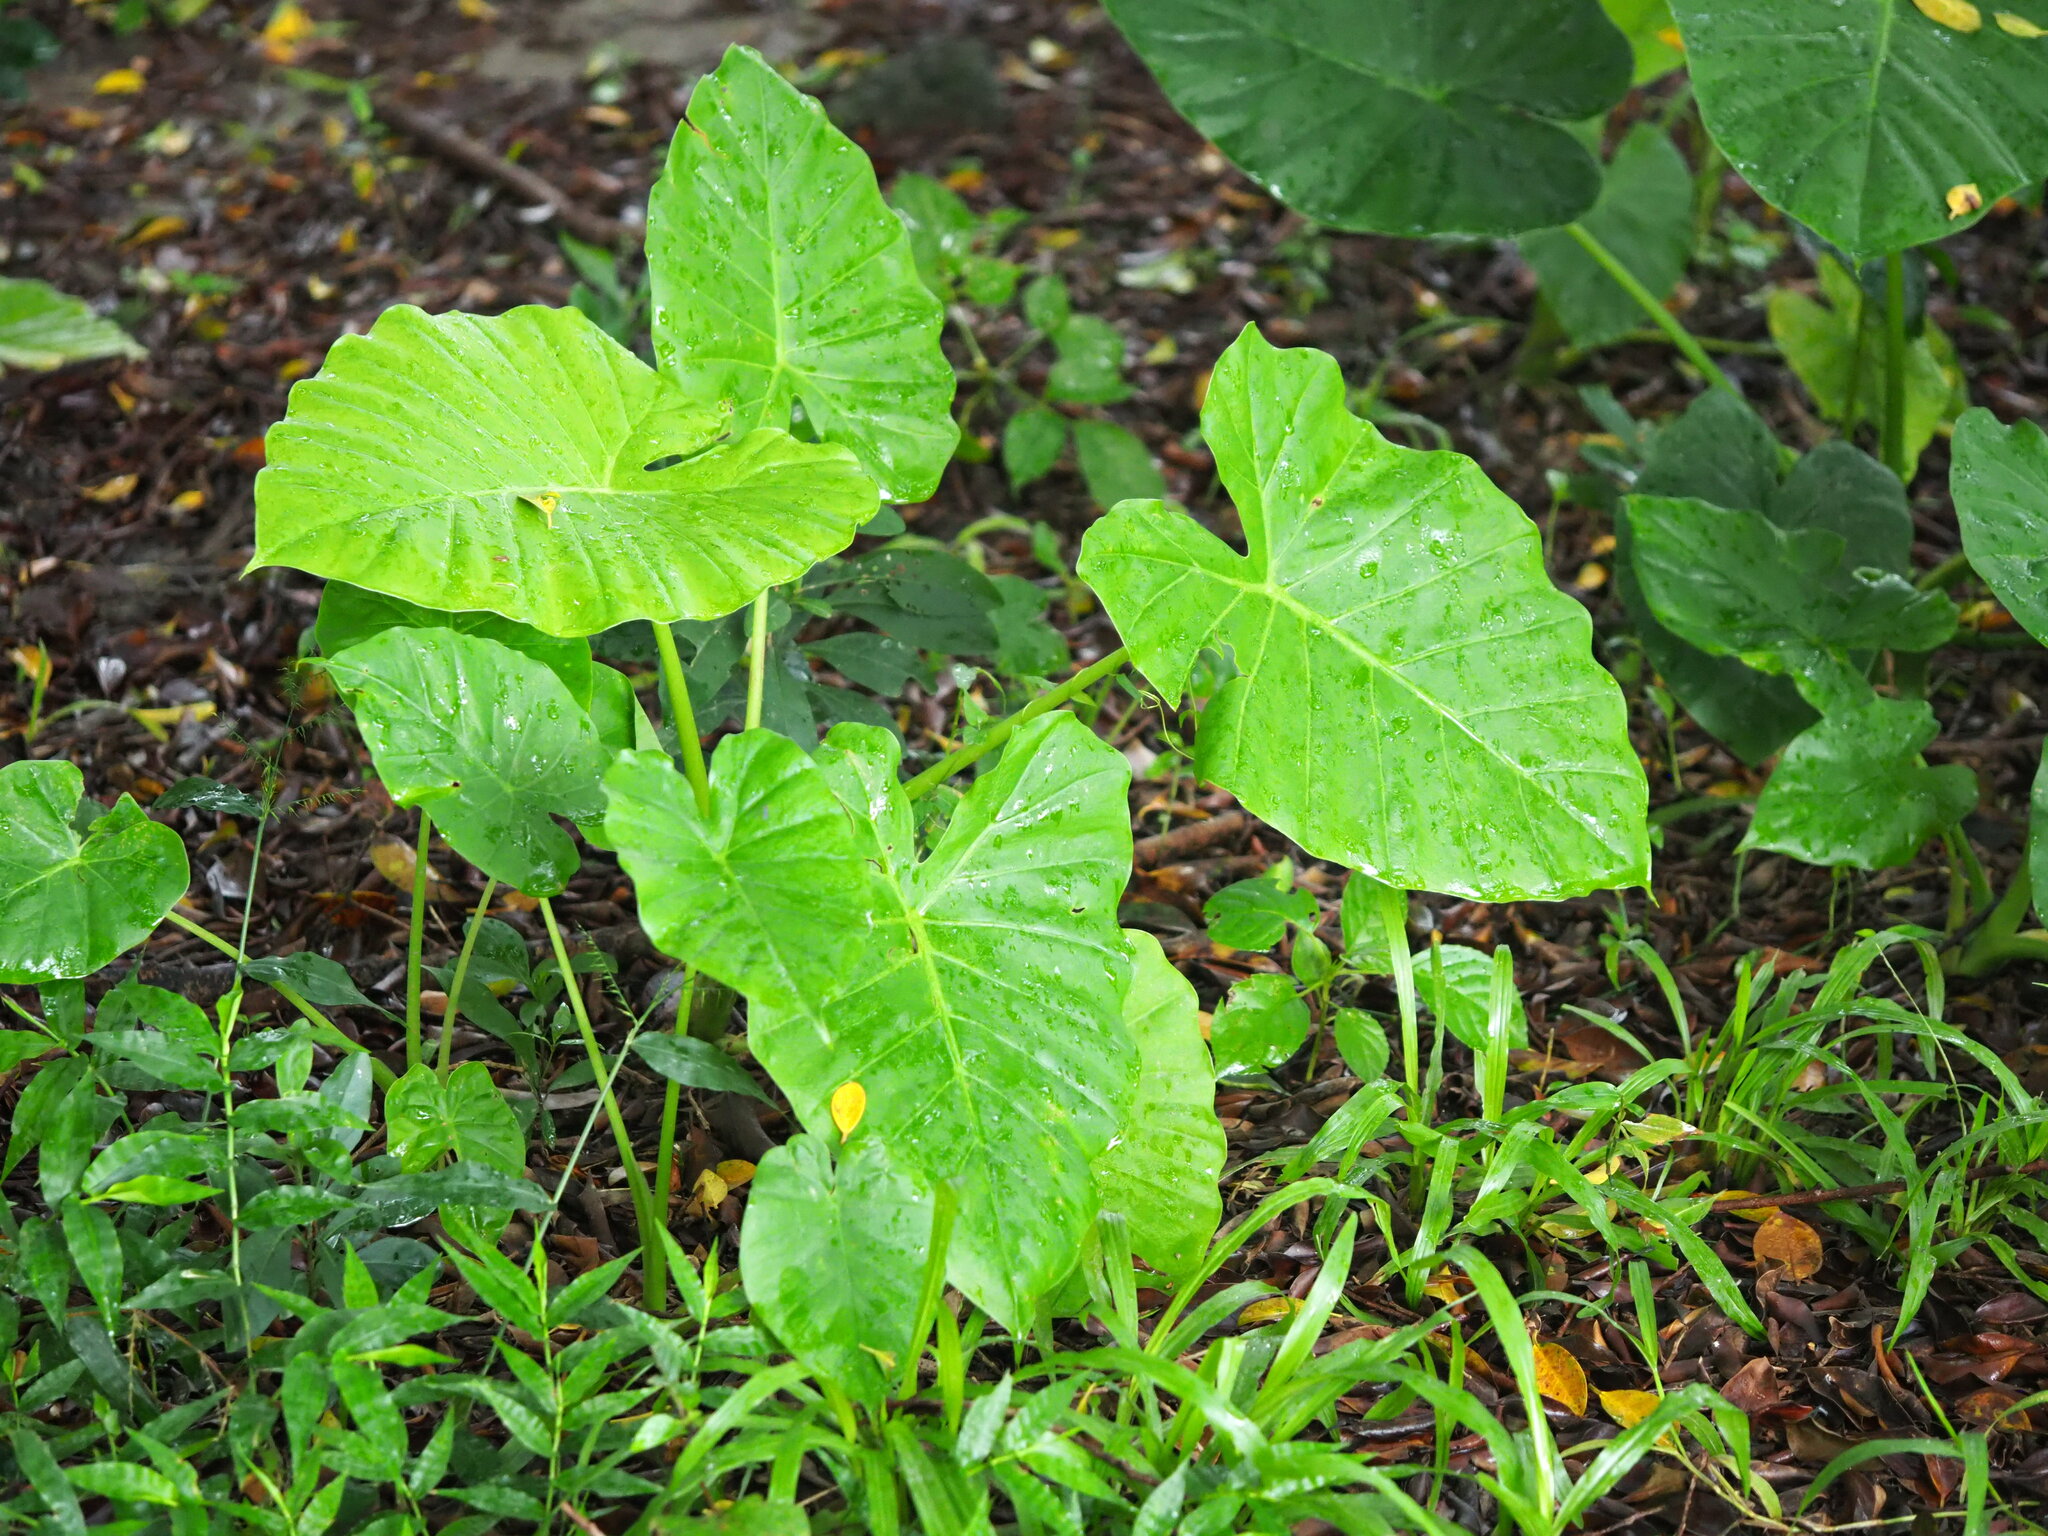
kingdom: Plantae
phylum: Tracheophyta
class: Liliopsida
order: Alismatales
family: Araceae
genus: Alocasia
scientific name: Alocasia odora
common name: Asian taro
